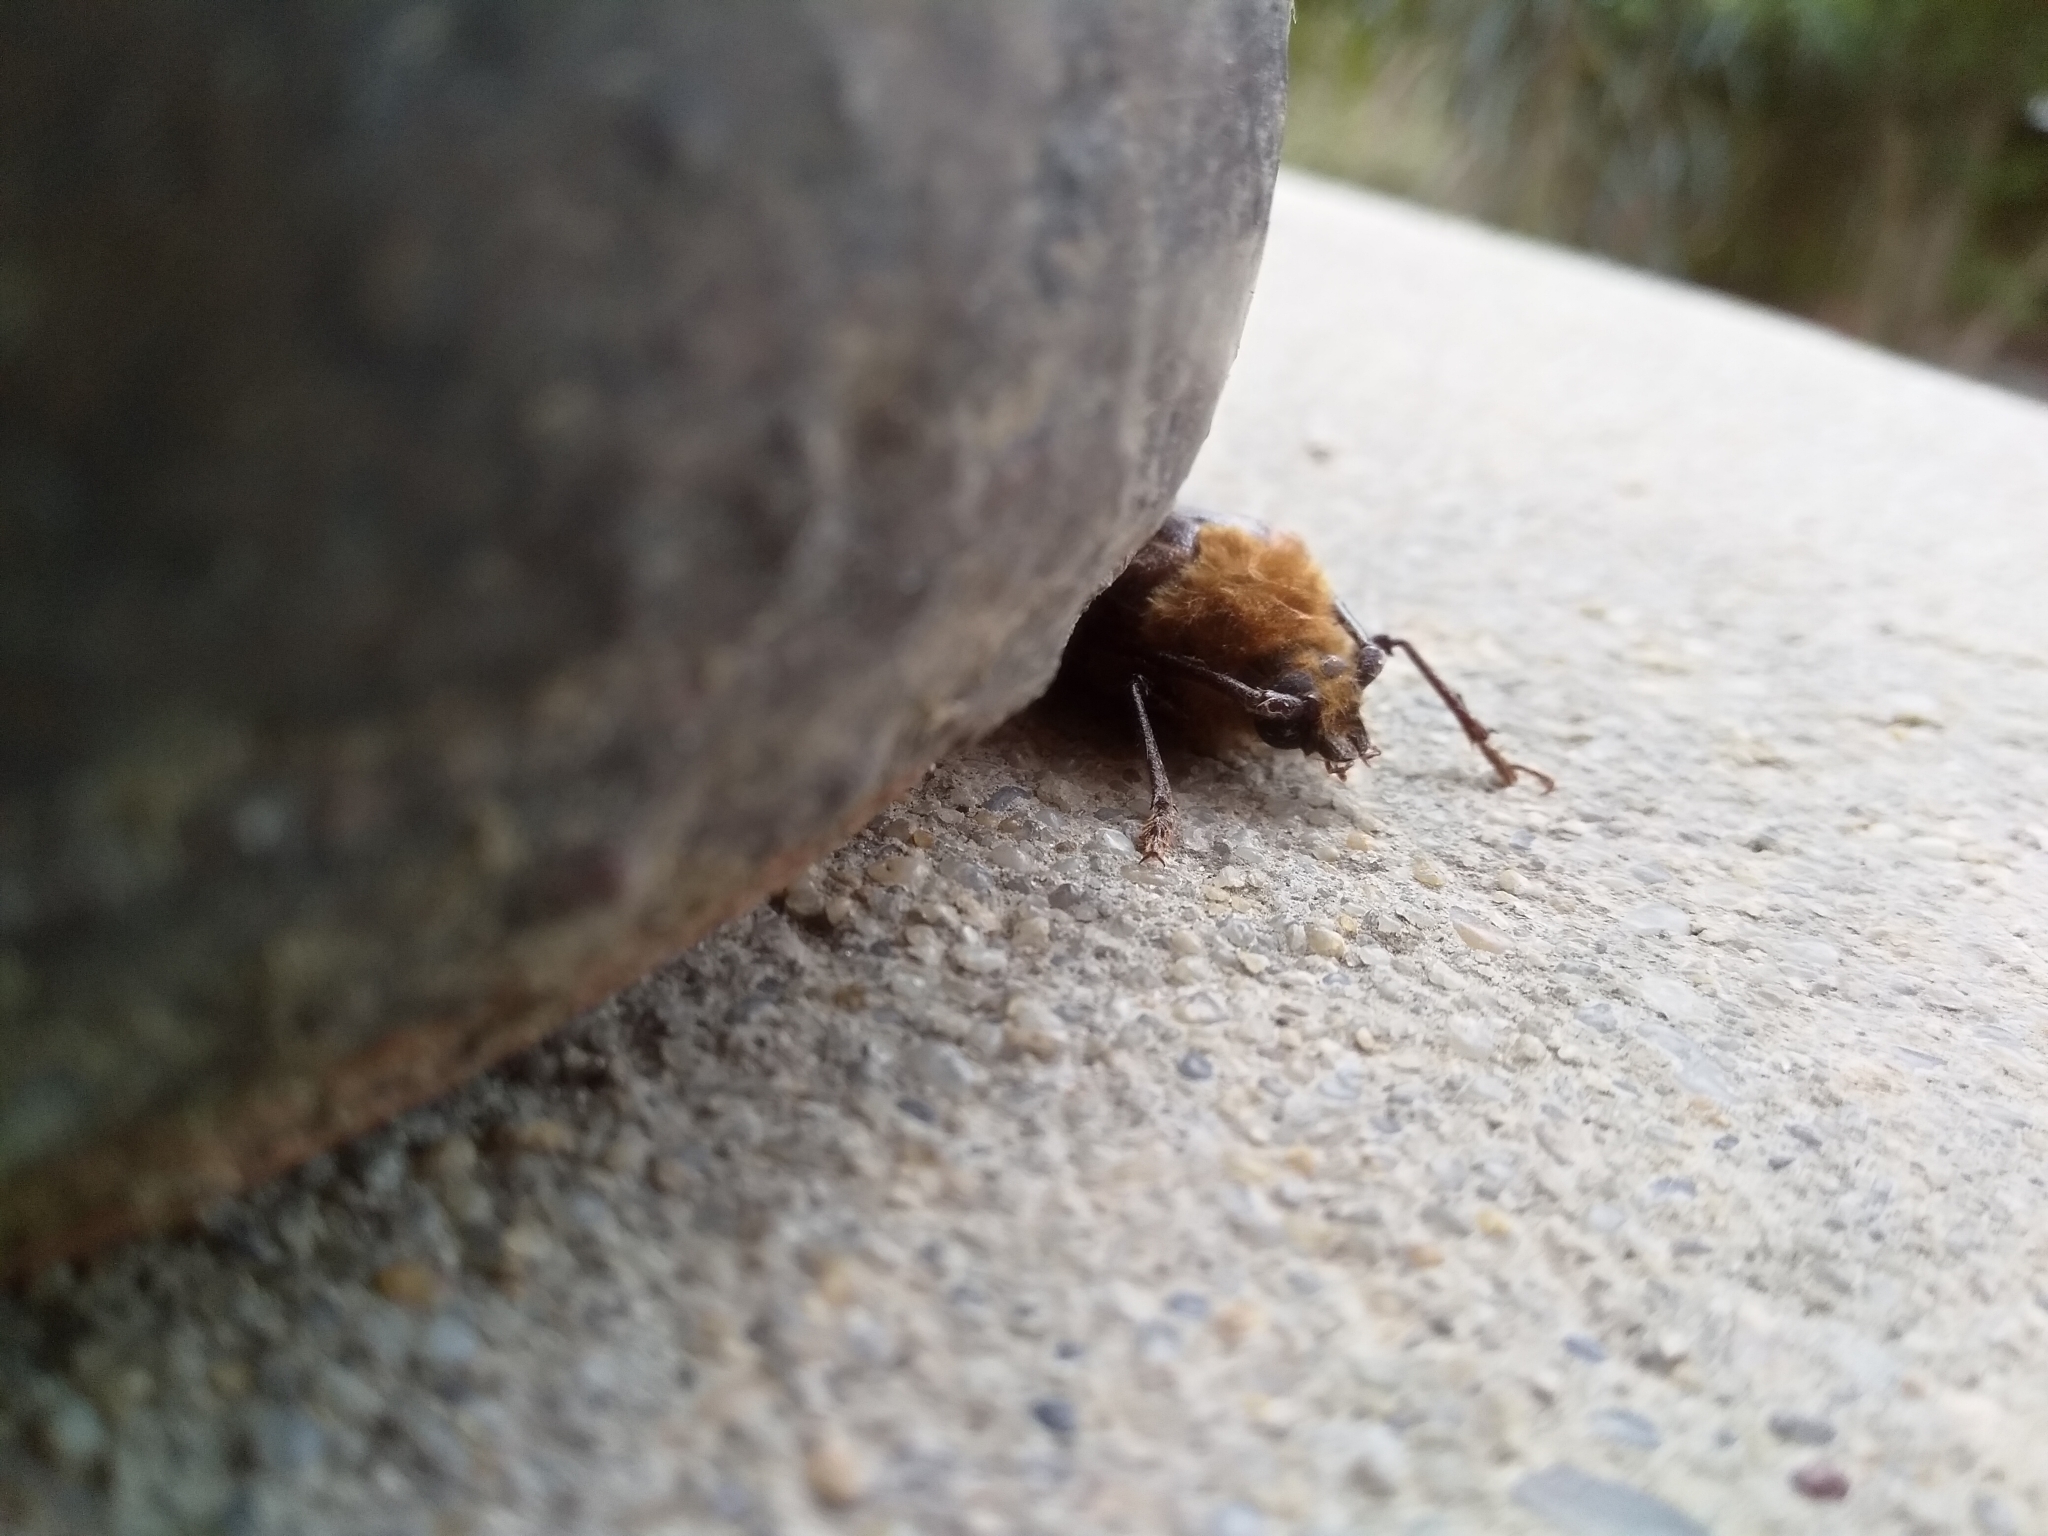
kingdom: Animalia
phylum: Arthropoda
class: Insecta
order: Coleoptera
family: Cerambycidae
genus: Prionoplus
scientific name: Prionoplus reticularis
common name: Huhu beetle
